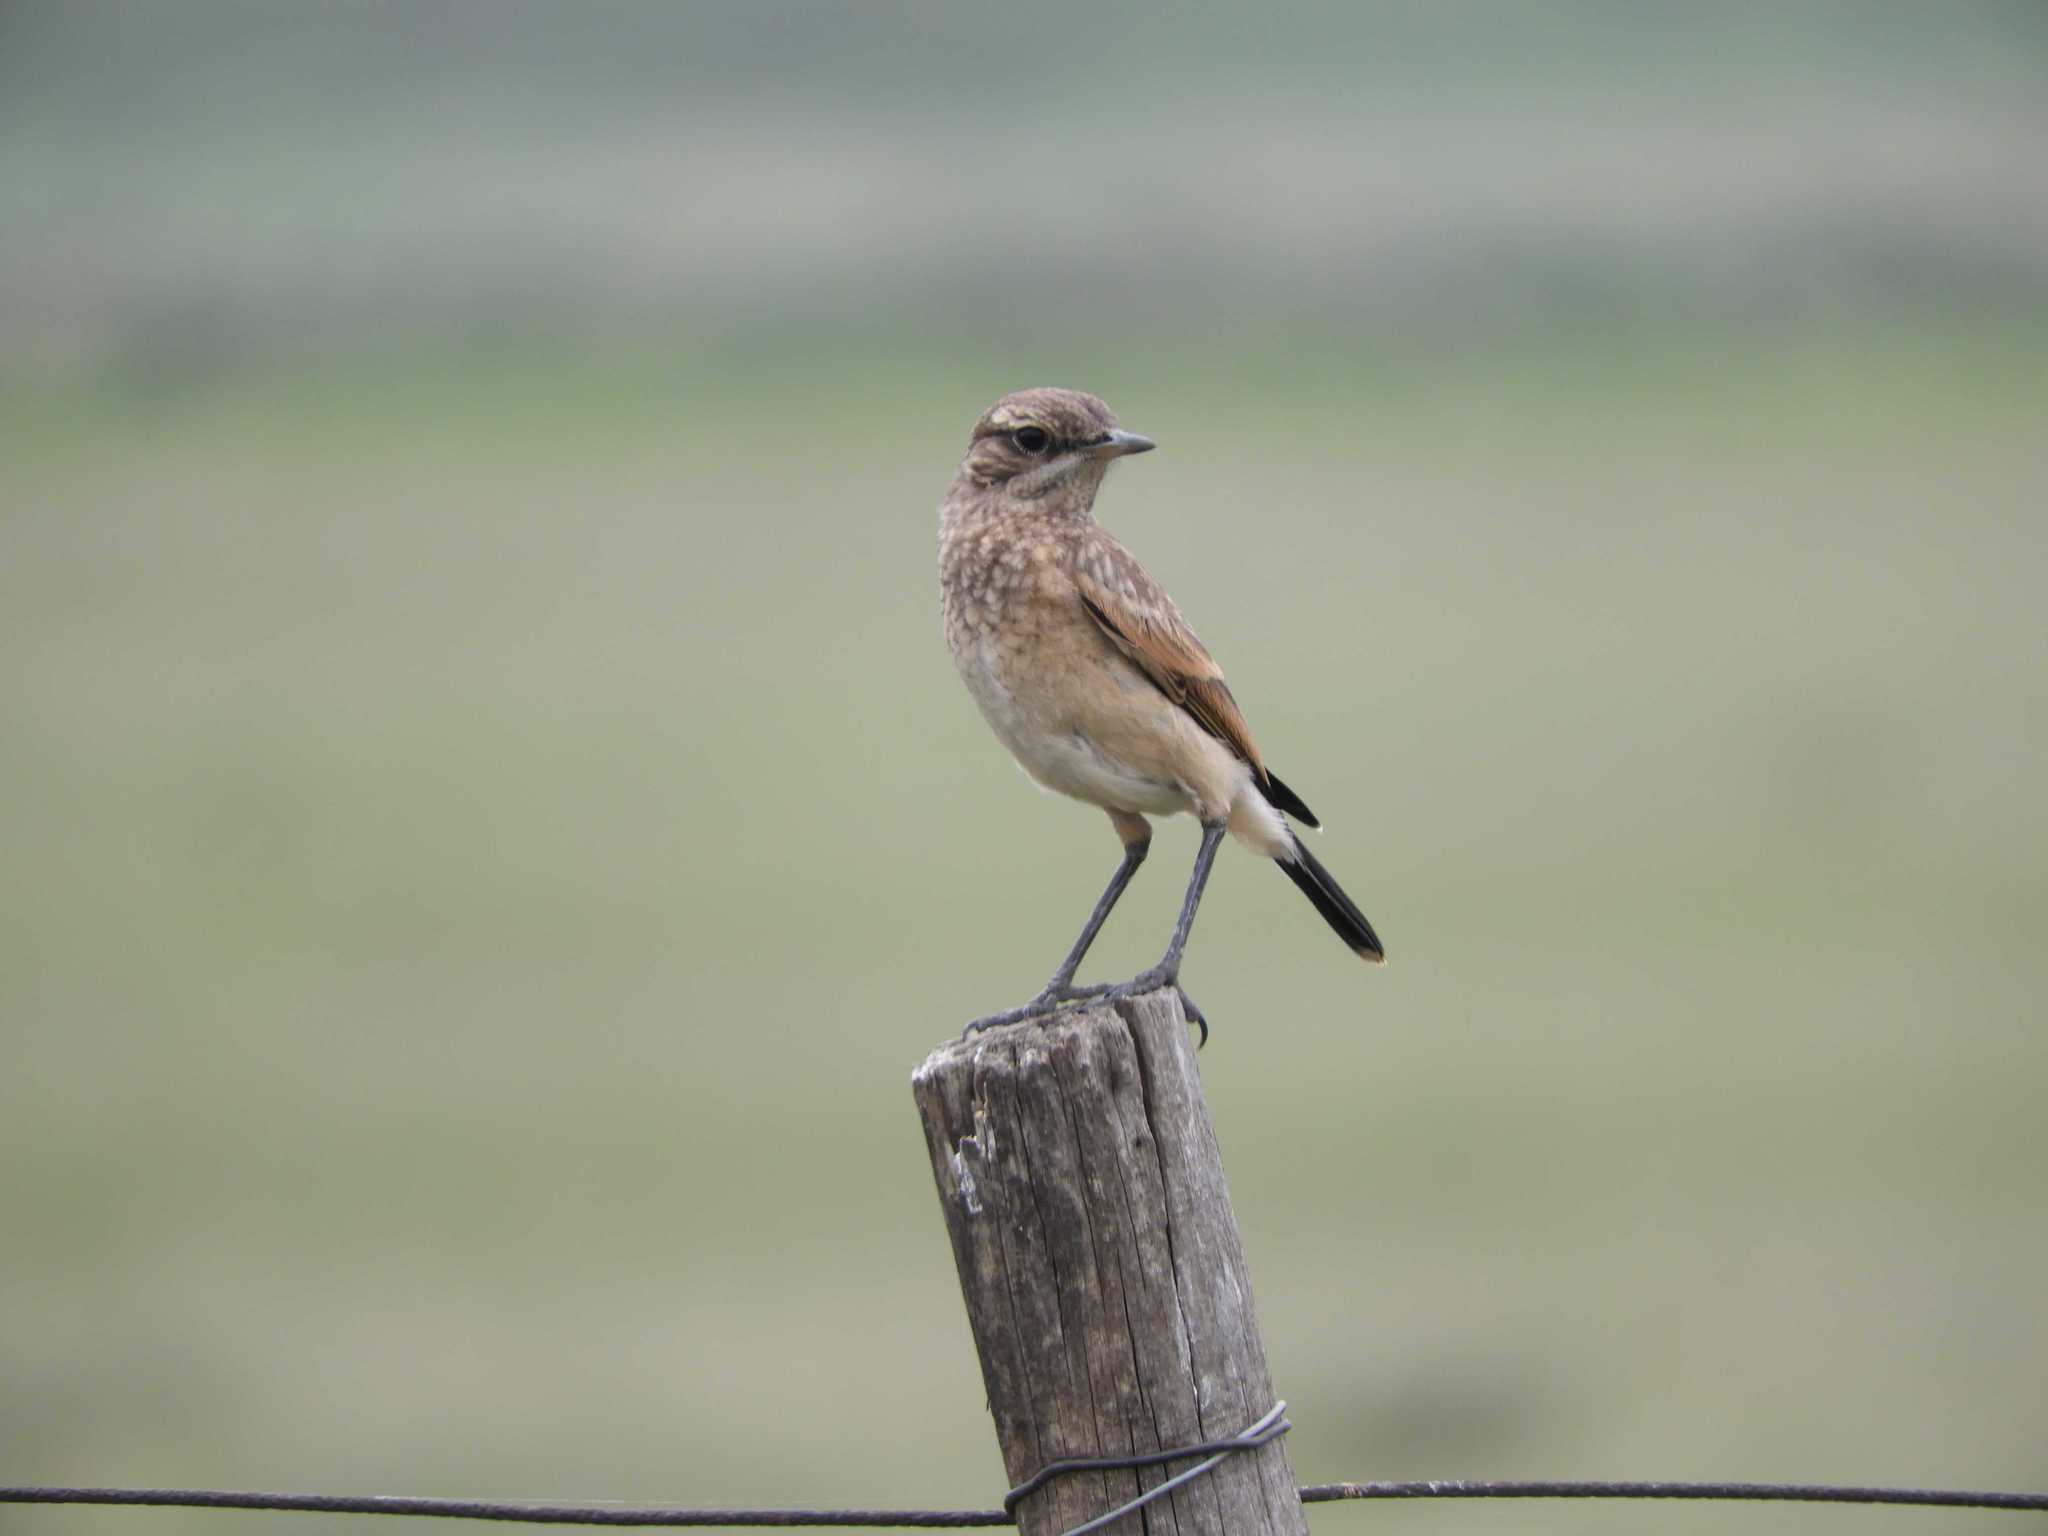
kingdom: Animalia
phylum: Chordata
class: Aves
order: Passeriformes
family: Muscicapidae
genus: Oenanthe
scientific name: Oenanthe pileata
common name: Capped wheatear
